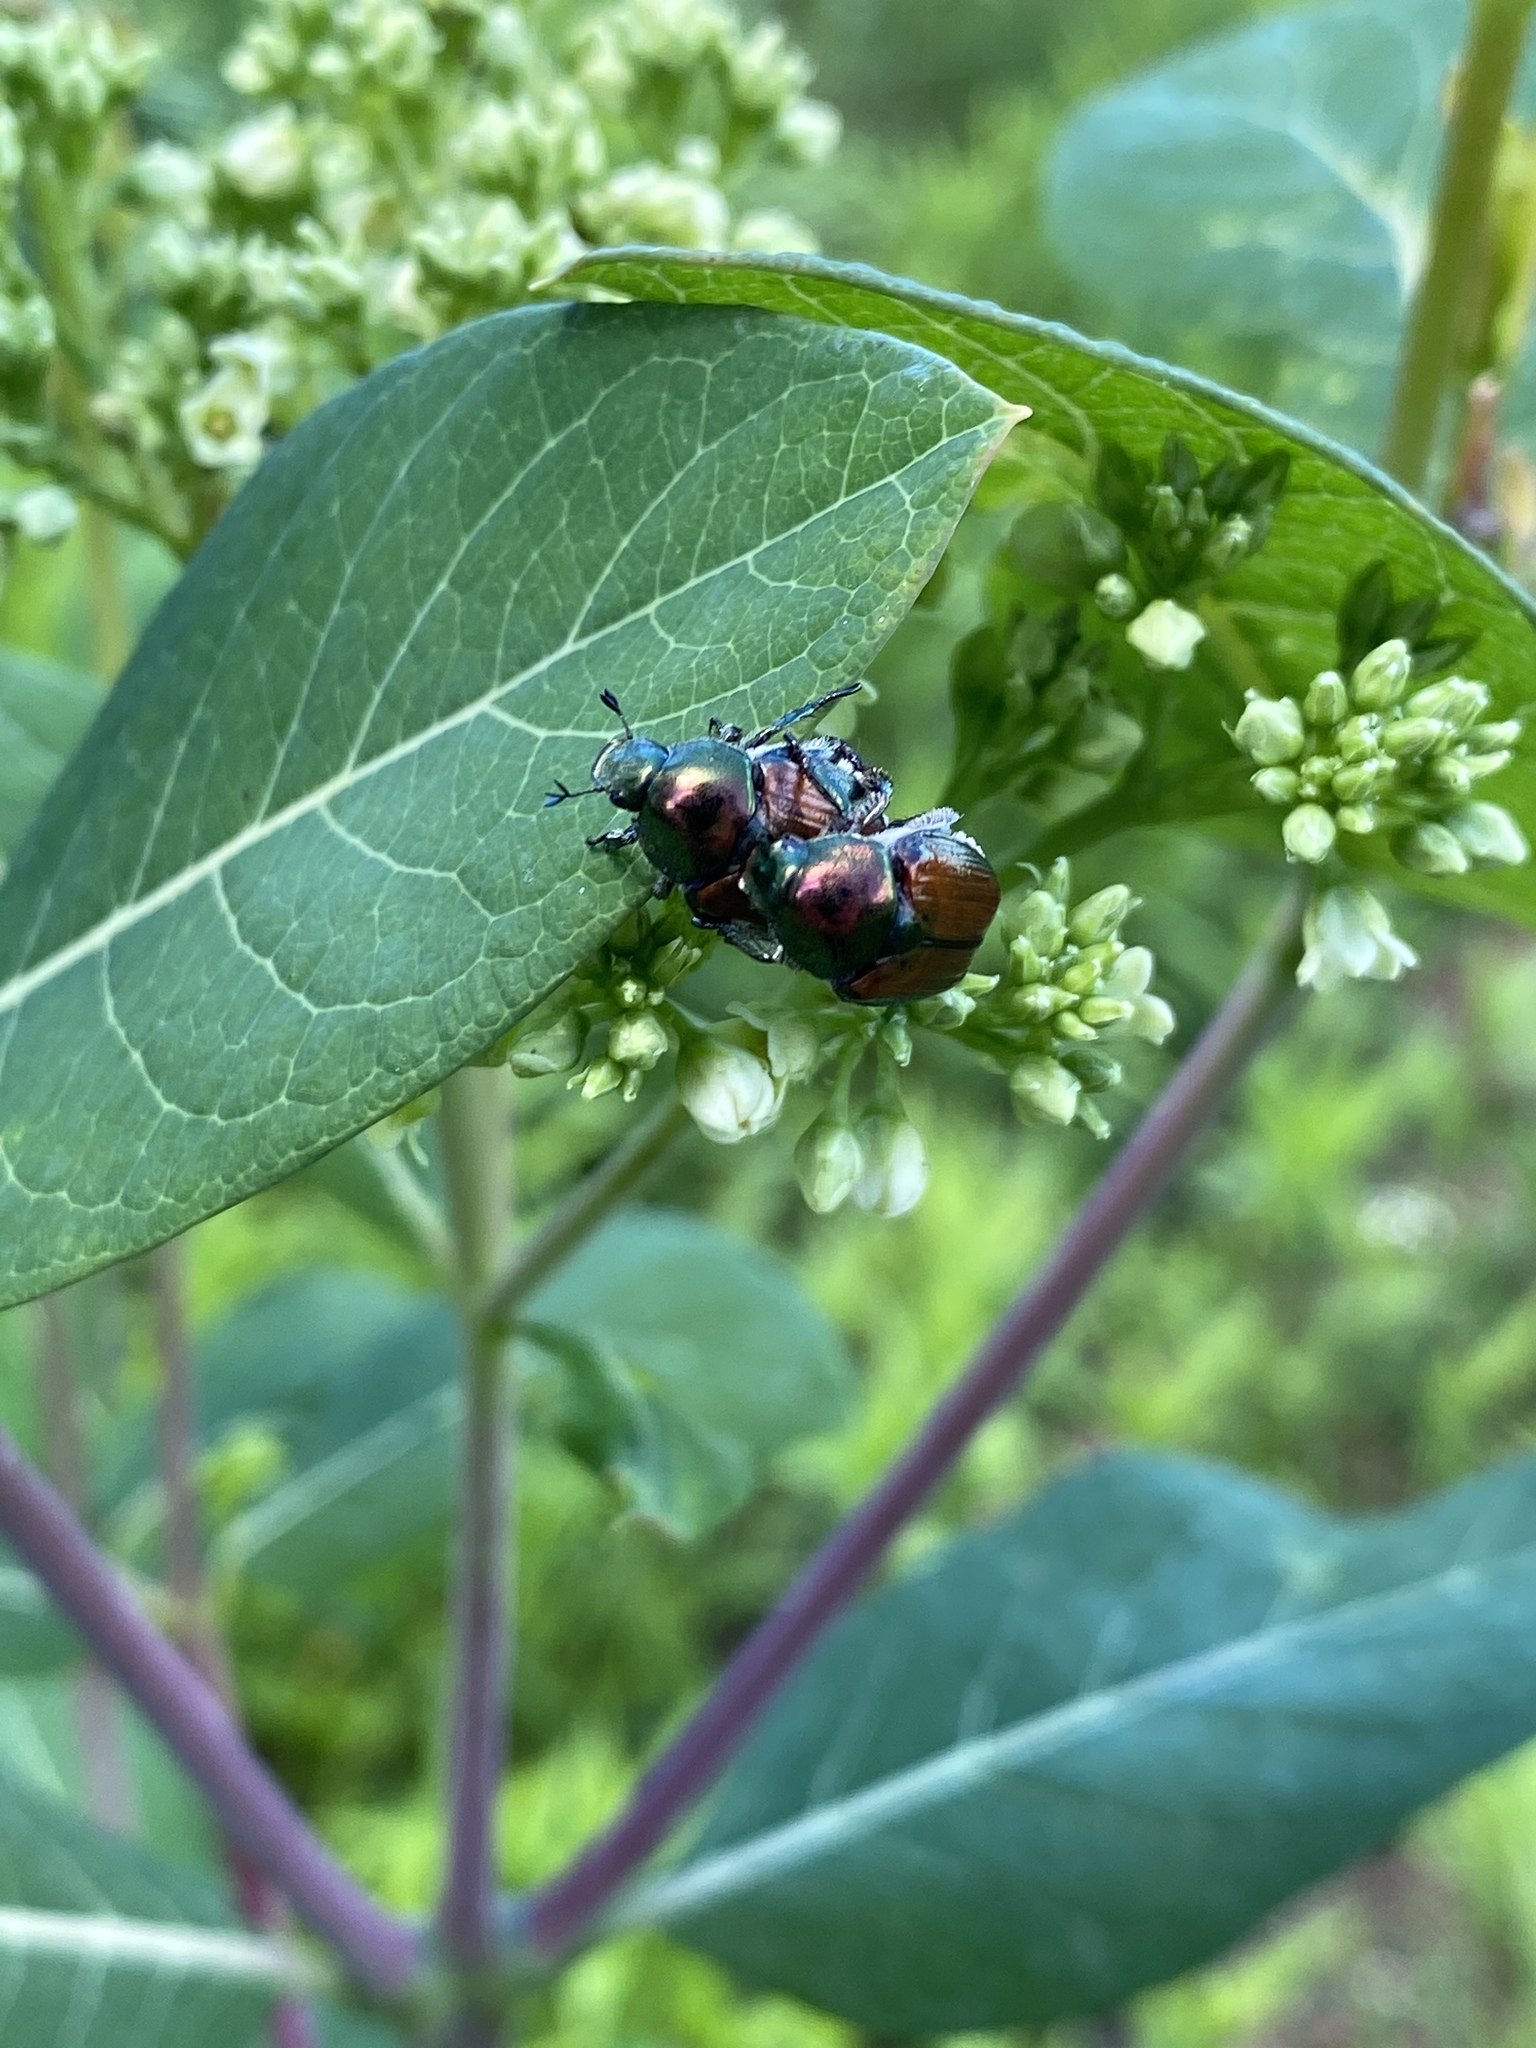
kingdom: Animalia
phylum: Arthropoda
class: Insecta
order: Coleoptera
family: Scarabaeidae
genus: Popillia
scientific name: Popillia japonica
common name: Japanese beetle
